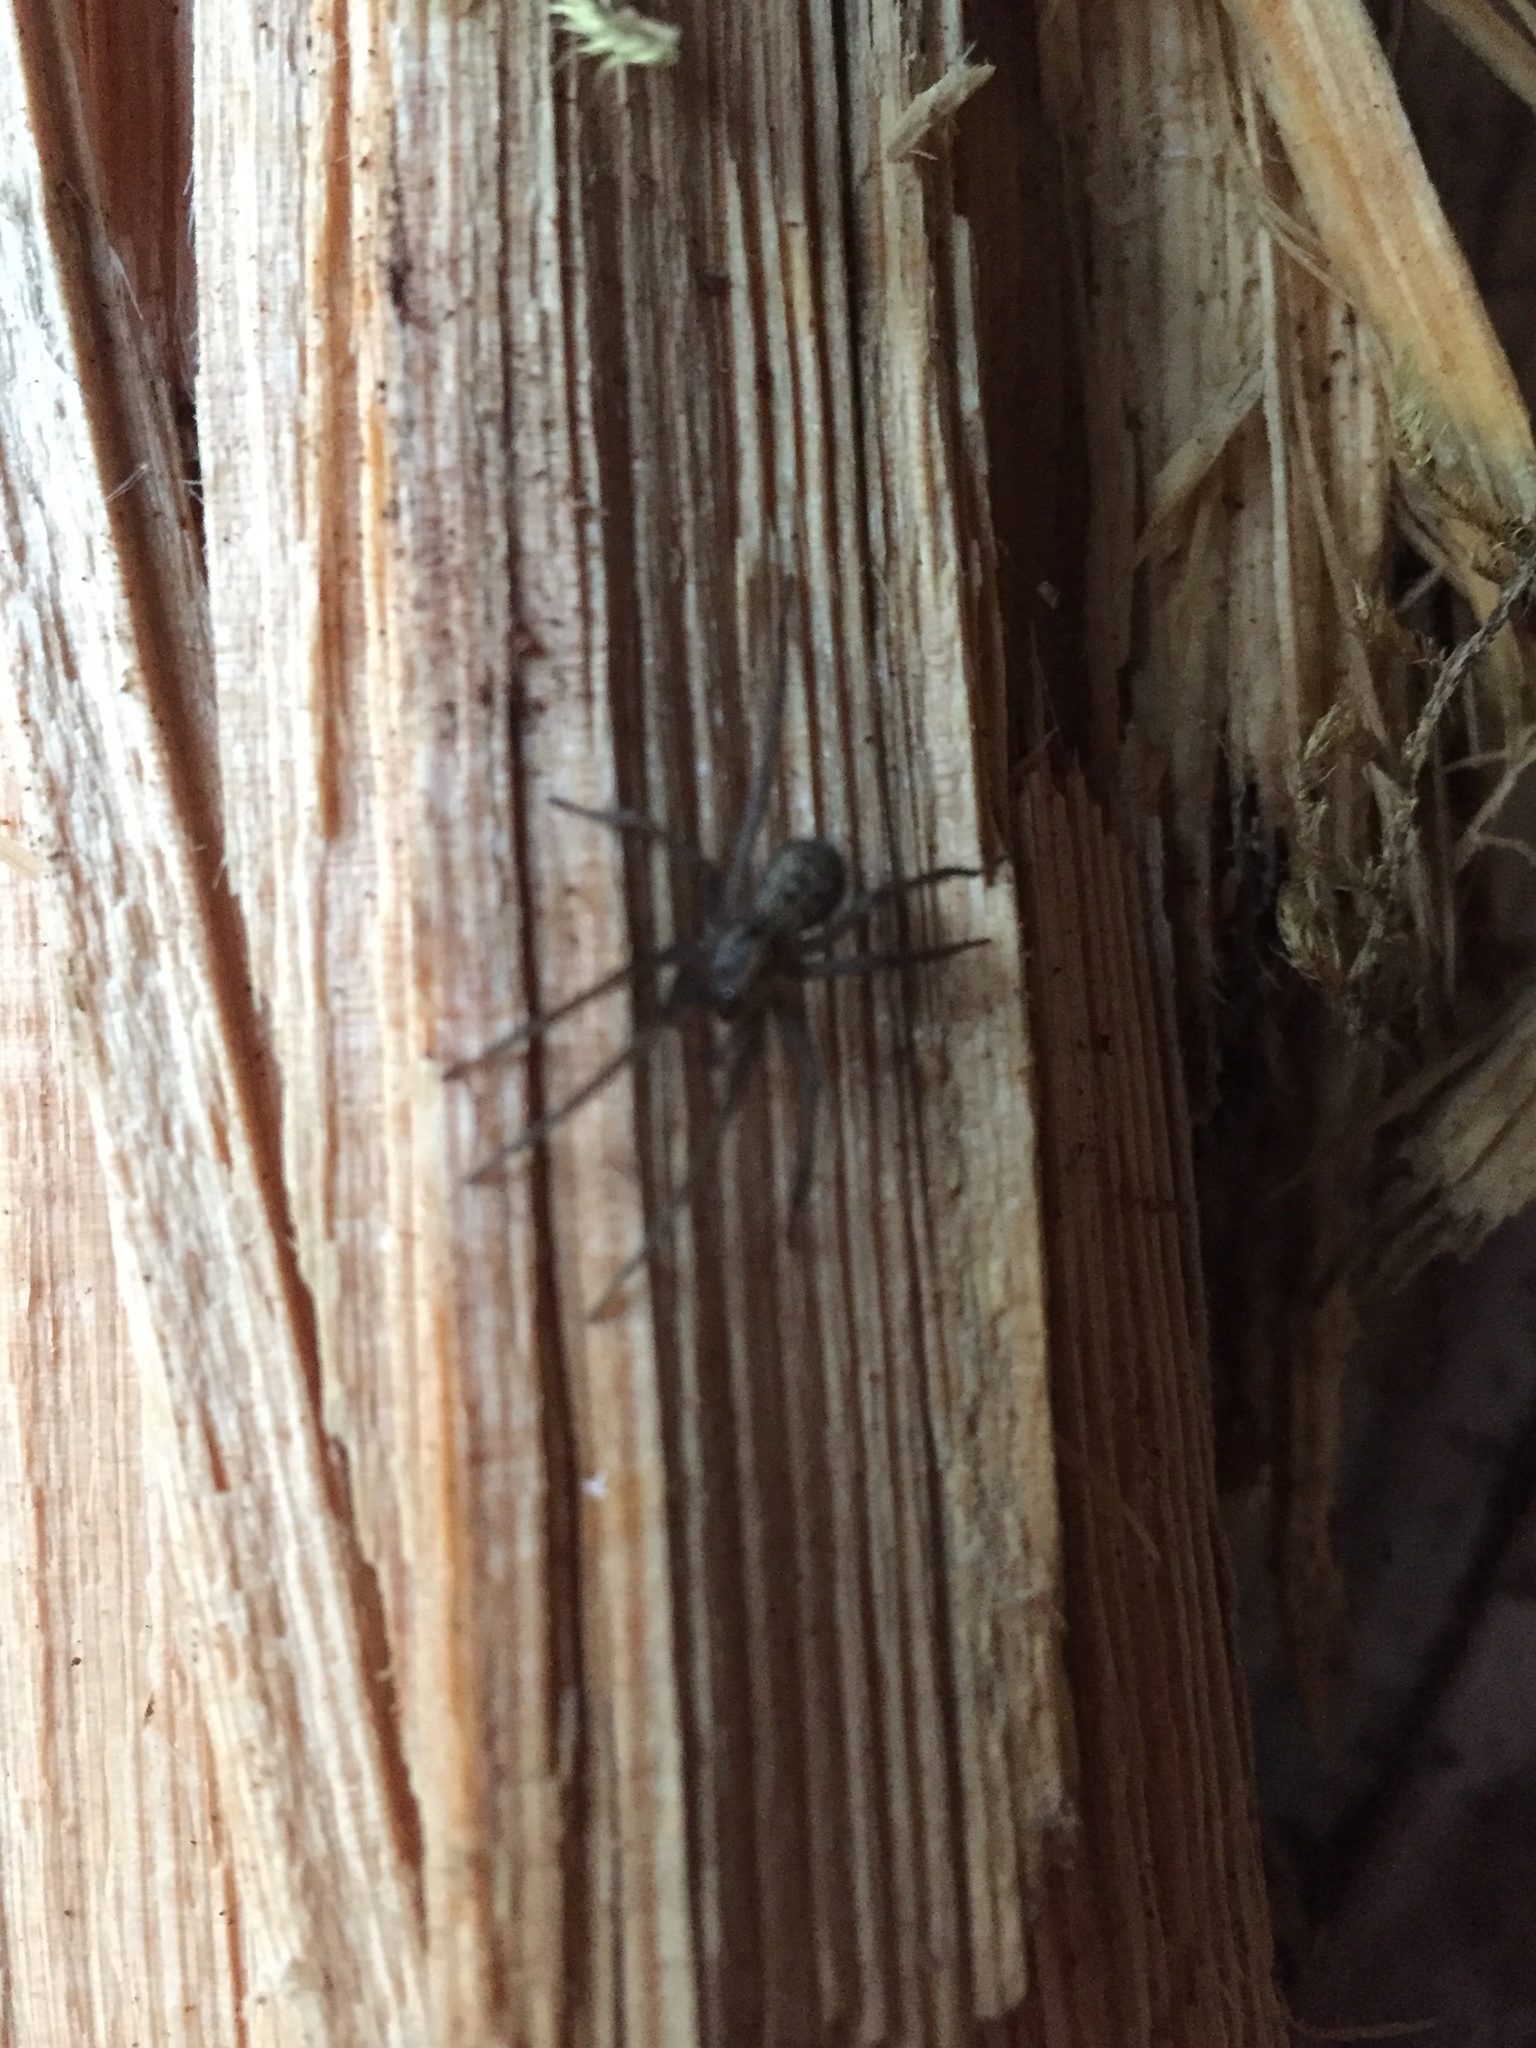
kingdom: Animalia
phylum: Arthropoda
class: Arachnida
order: Araneae
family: Agelenidae
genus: Eratigena
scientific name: Eratigena duellica
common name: Giant house spider
